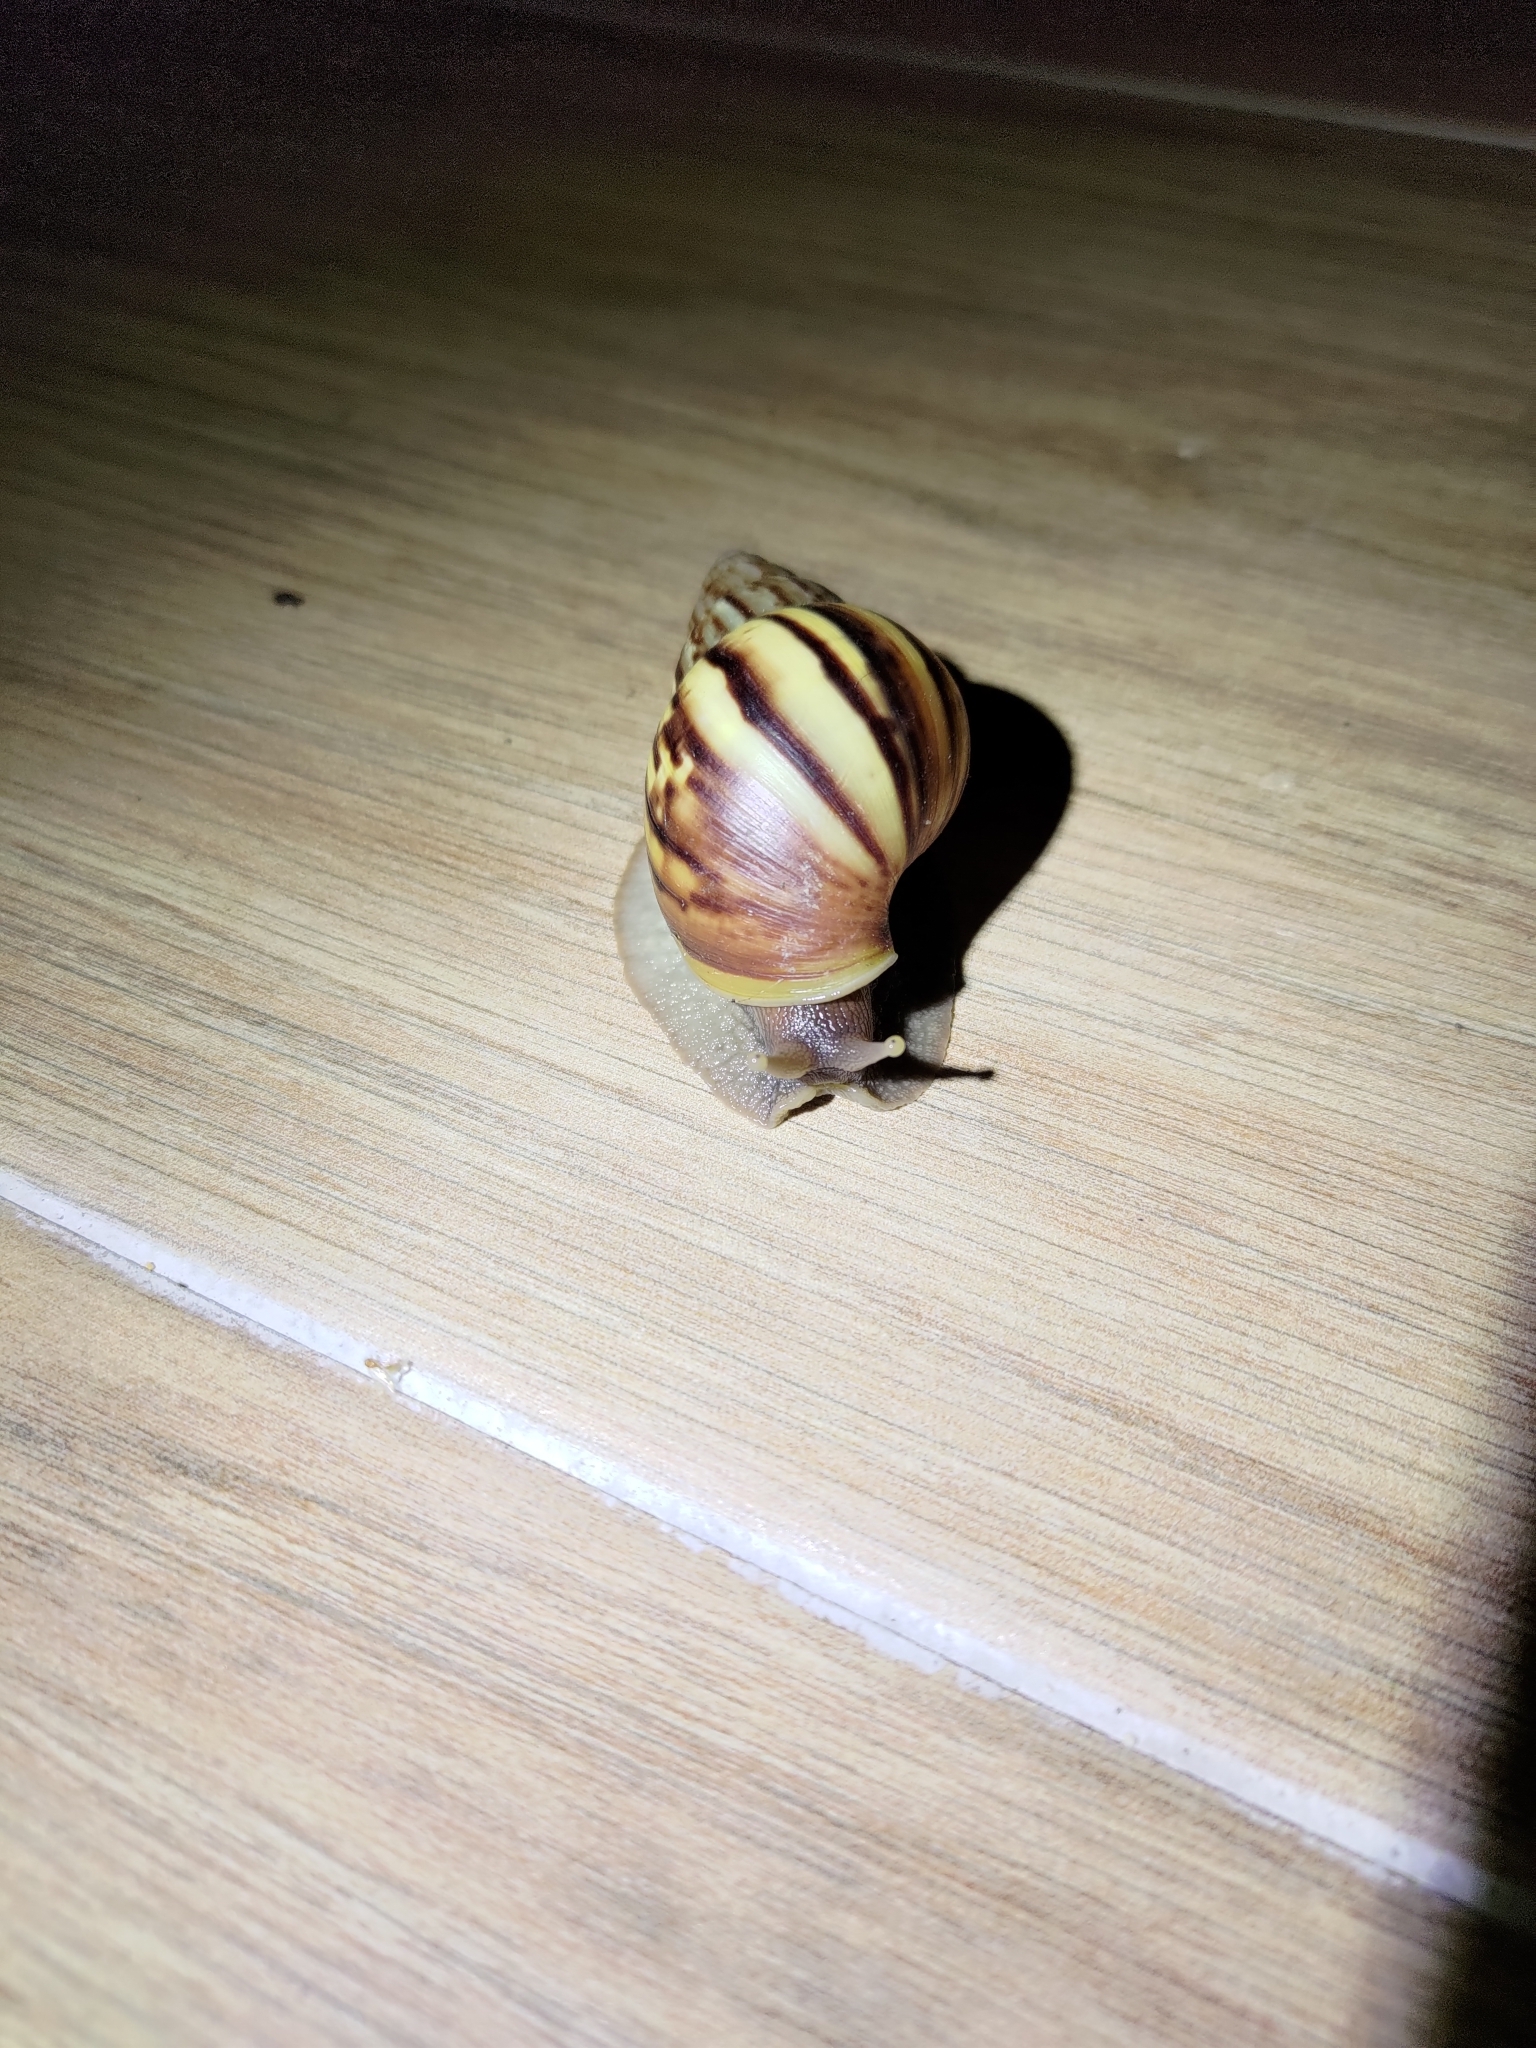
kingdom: Animalia
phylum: Mollusca
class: Gastropoda
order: Stylommatophora
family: Achatinidae
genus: Lissachatina
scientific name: Lissachatina fulica
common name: Giant african snail
